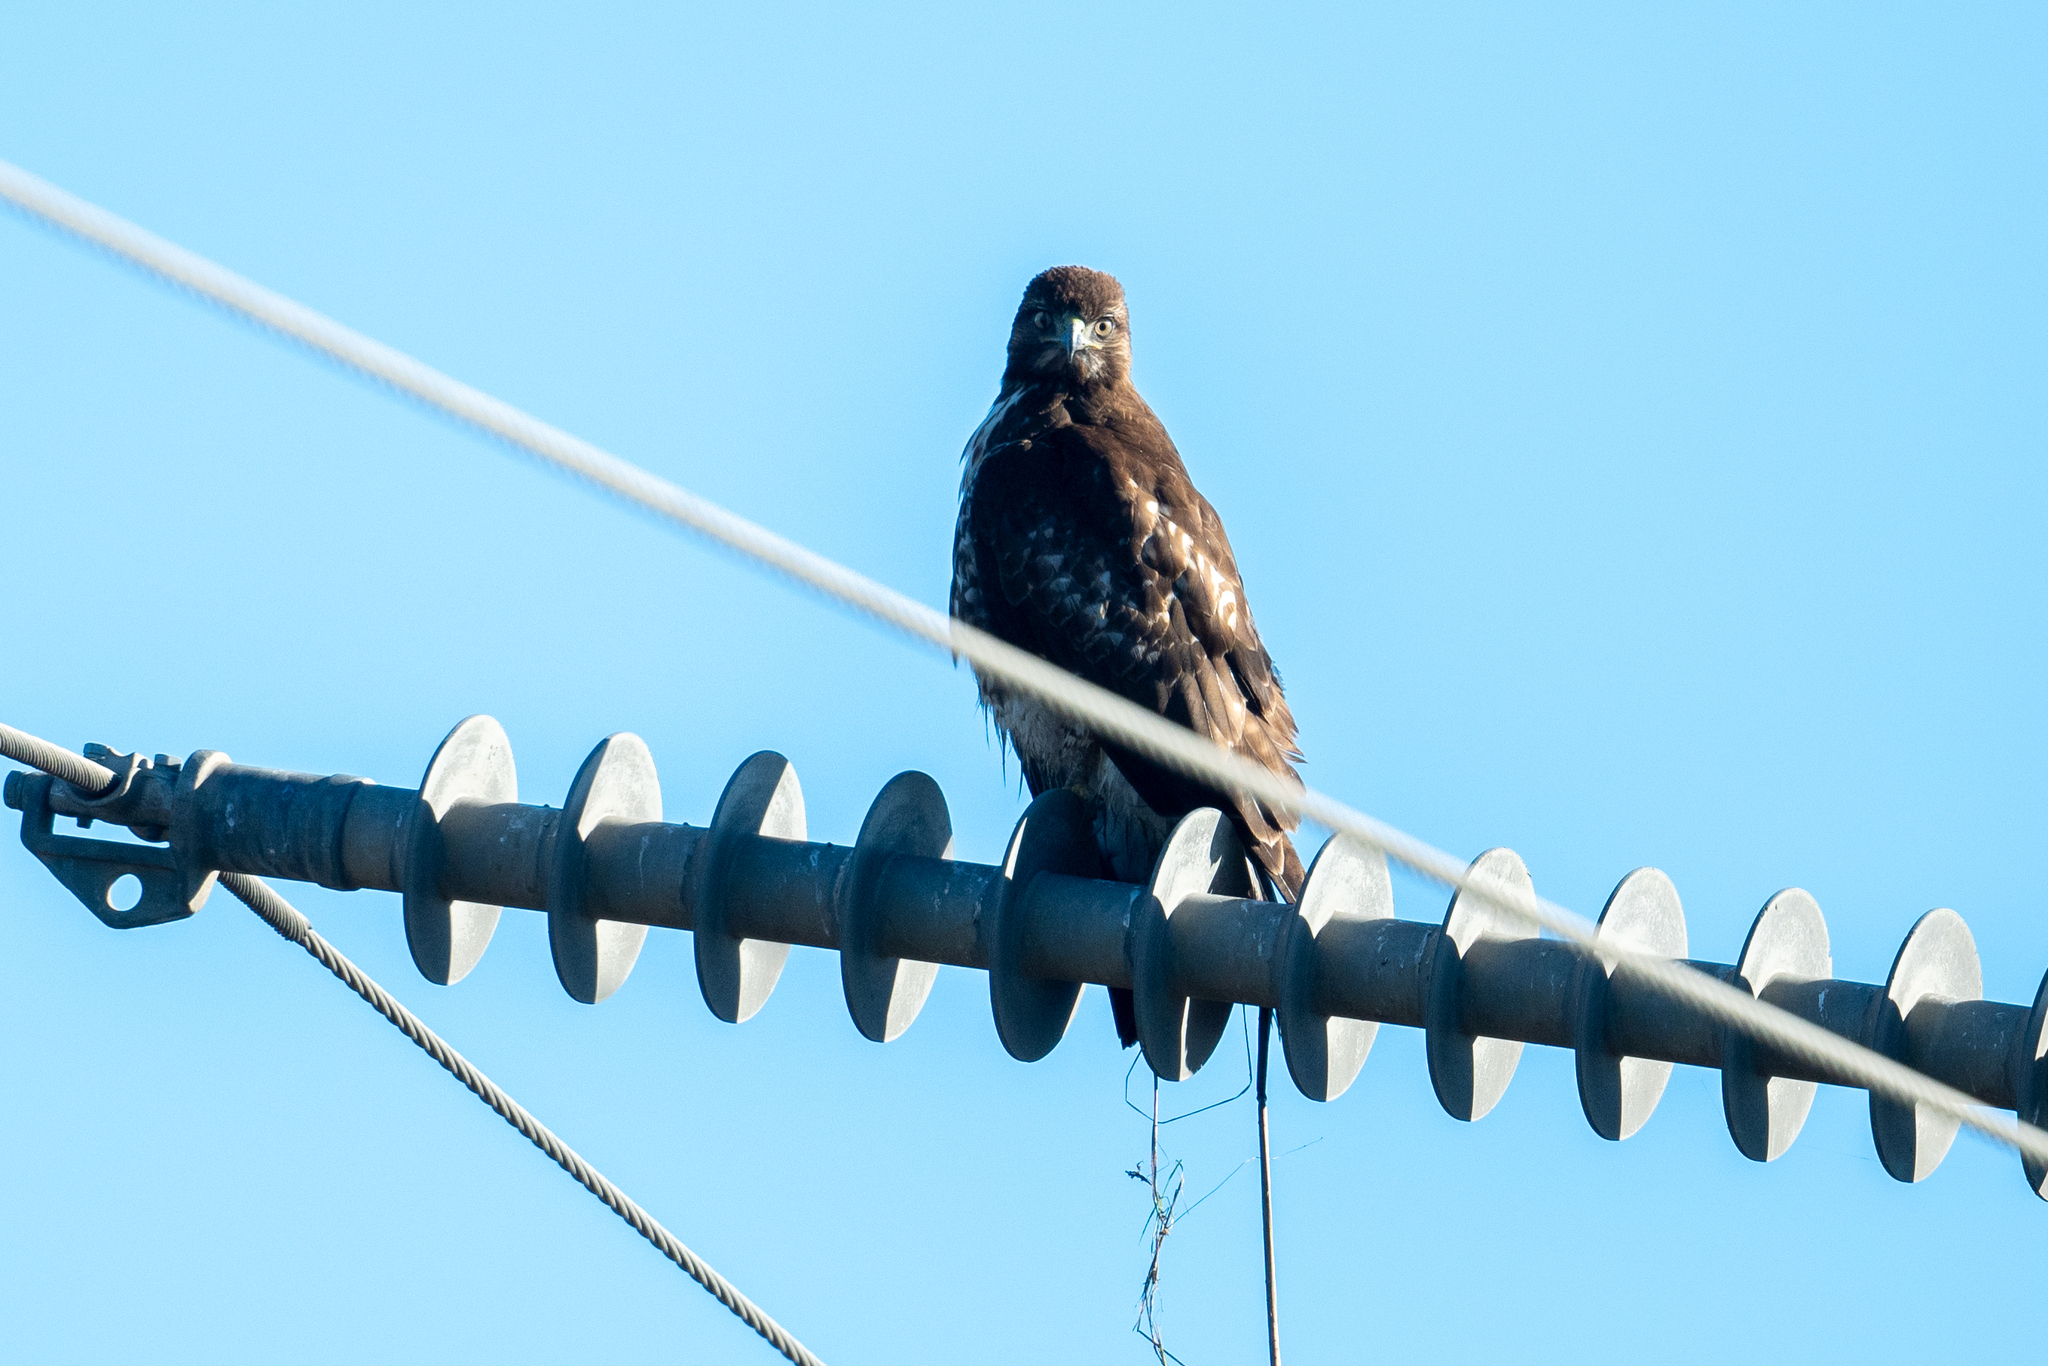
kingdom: Animalia
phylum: Chordata
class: Aves
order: Accipitriformes
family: Accipitridae
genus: Buteo
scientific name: Buteo jamaicensis
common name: Red-tailed hawk
